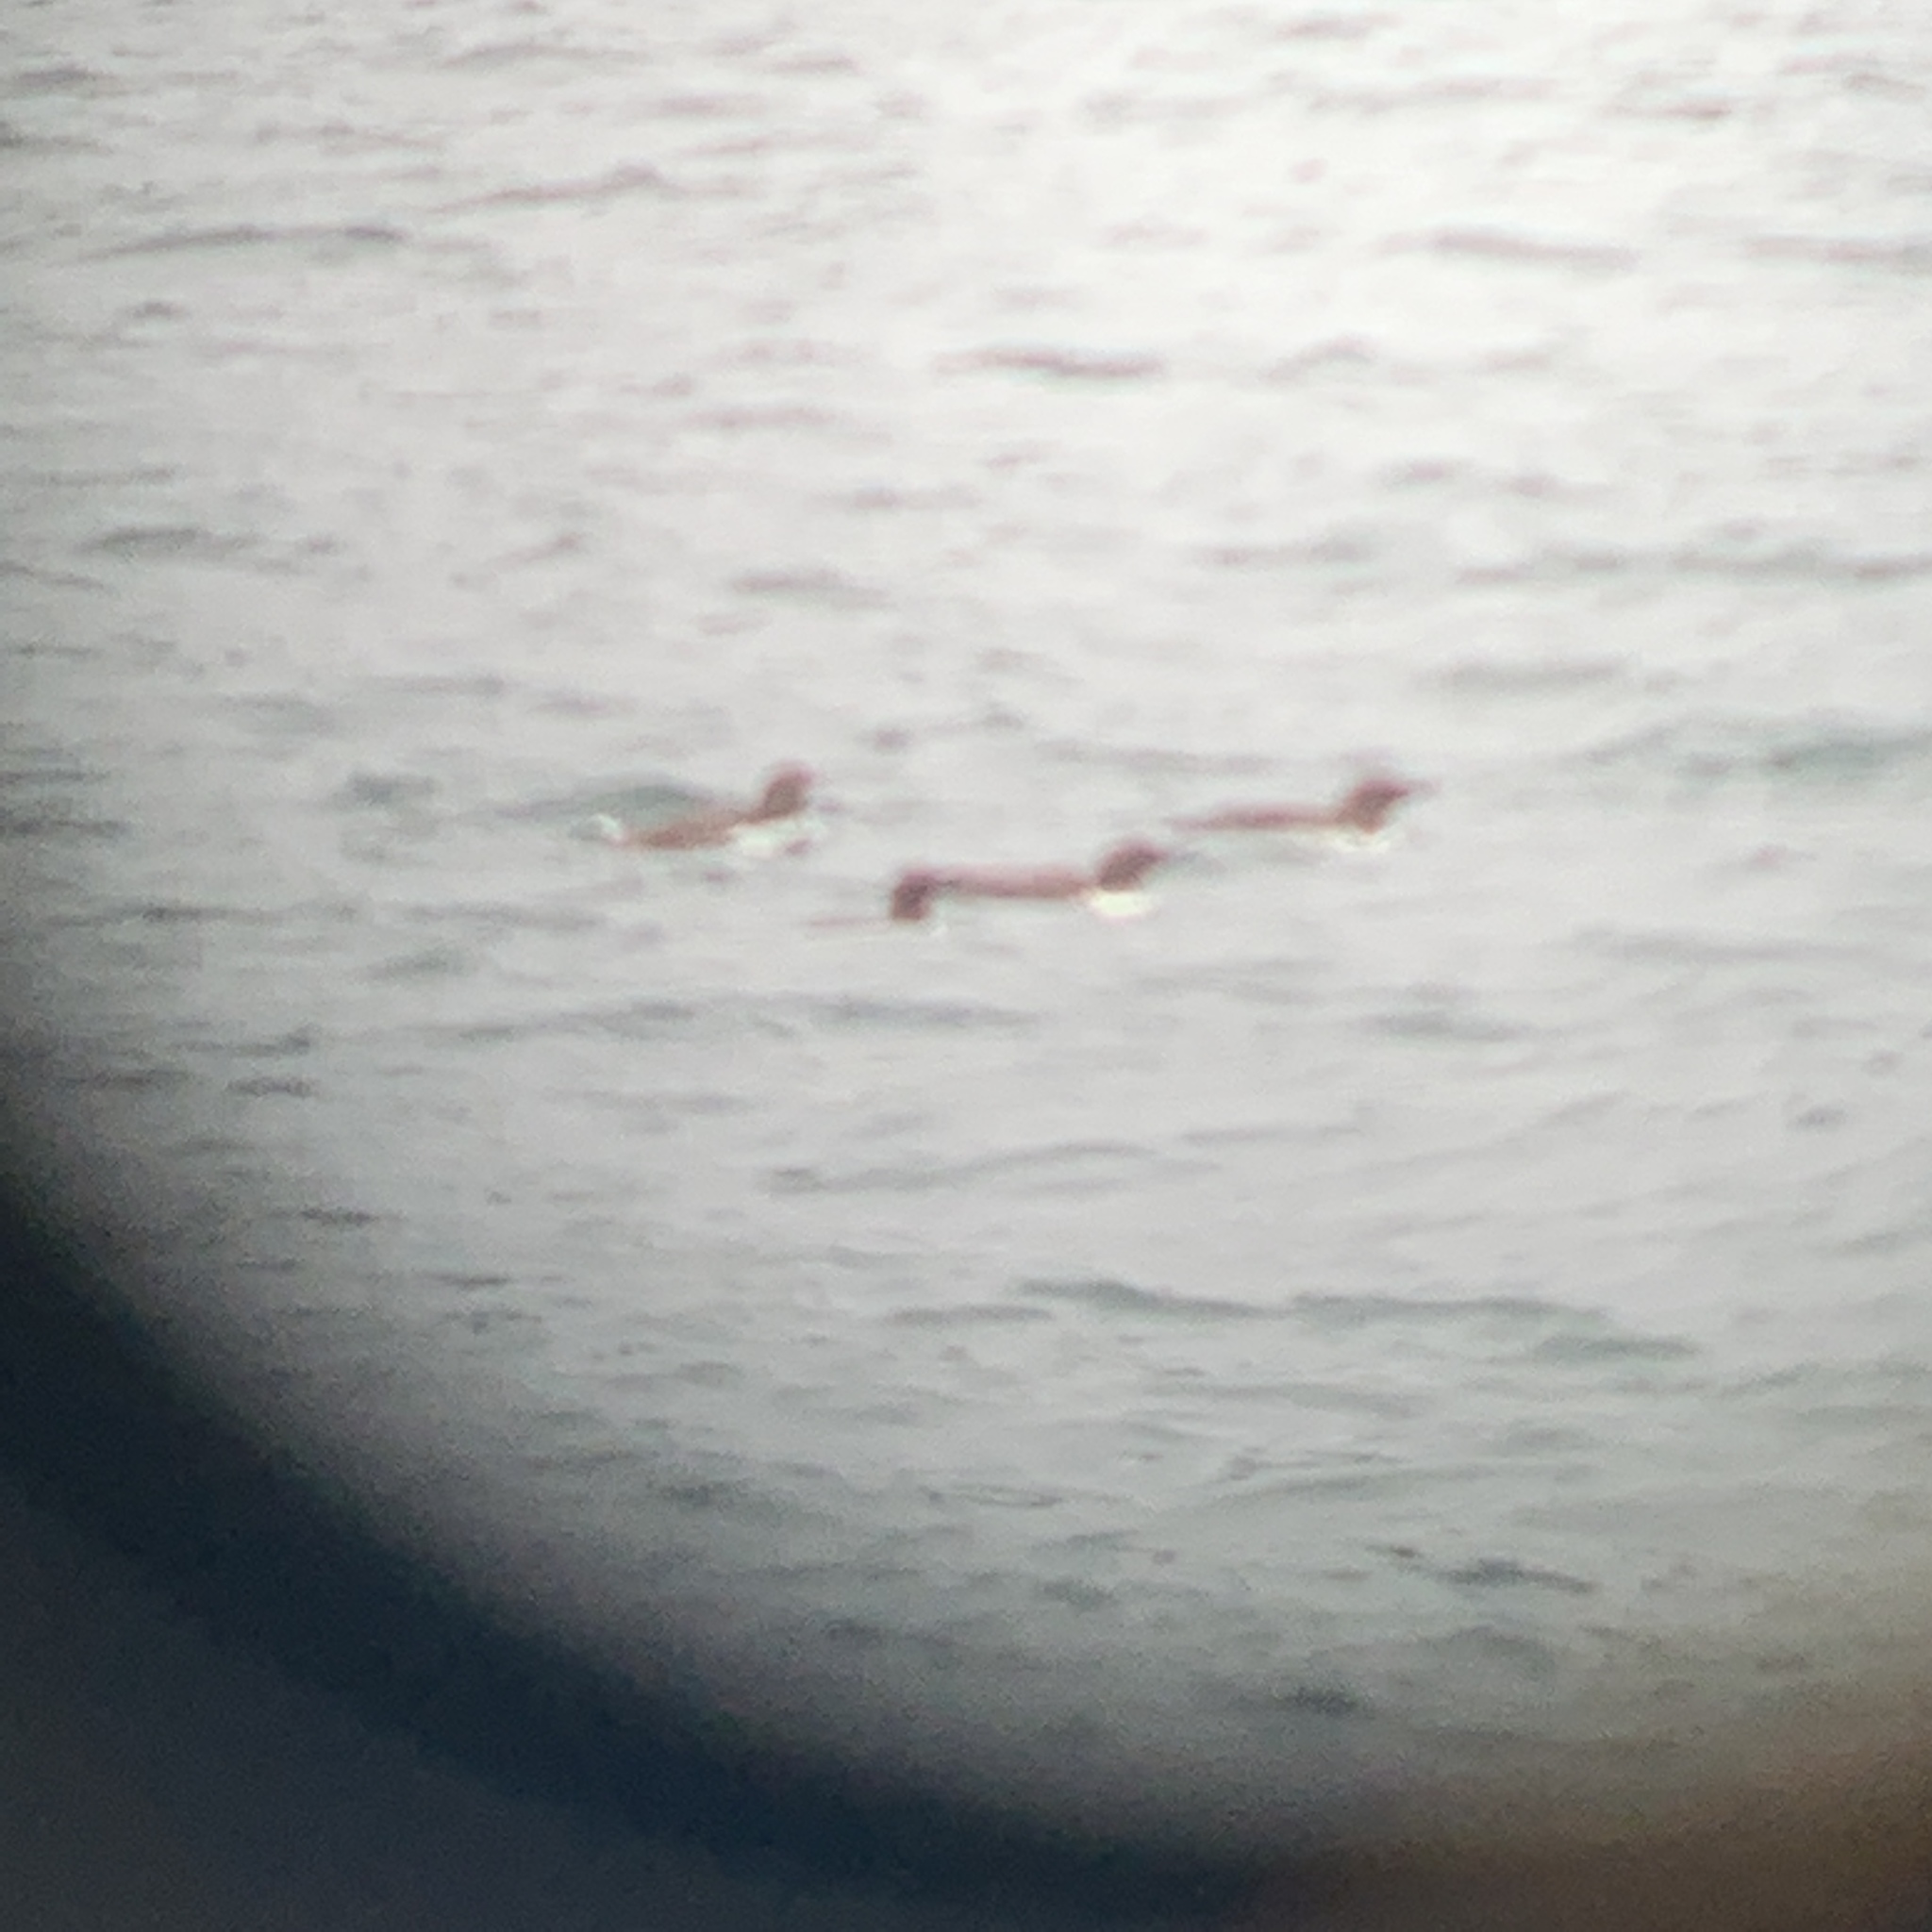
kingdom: Animalia
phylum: Chordata
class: Aves
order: Charadriiformes
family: Alcidae
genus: Uria
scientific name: Uria aalge
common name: Common murre
